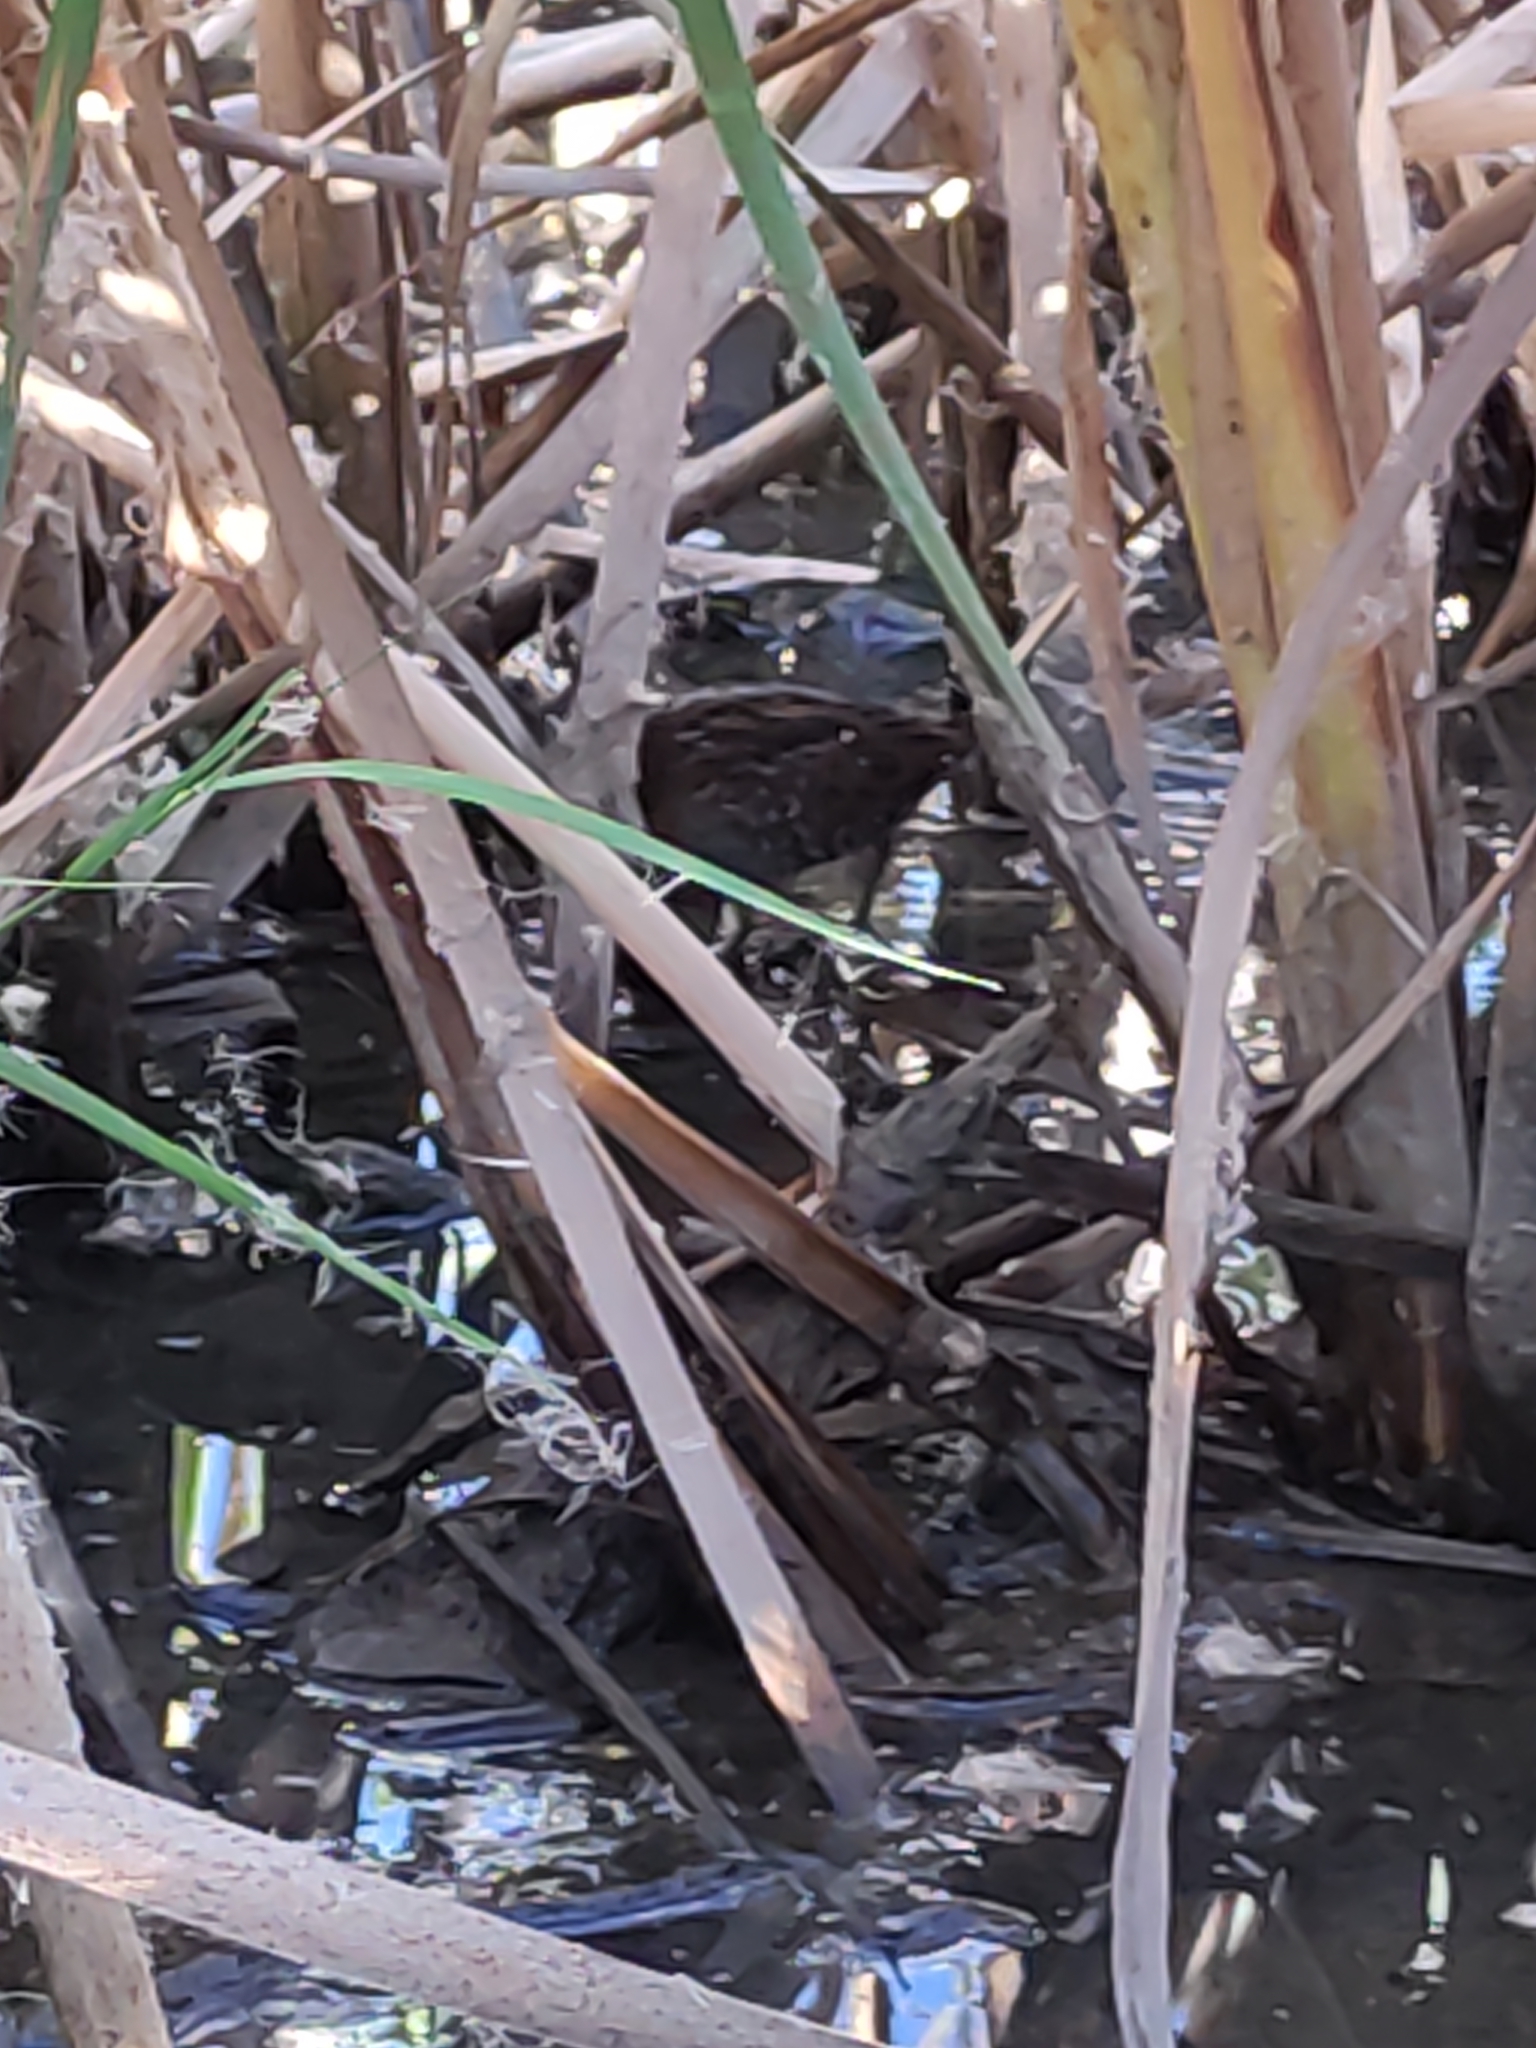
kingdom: Animalia
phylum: Chordata
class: Aves
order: Gruiformes
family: Rallidae
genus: Porzana
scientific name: Porzana pusilla
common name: Baillon's crake
